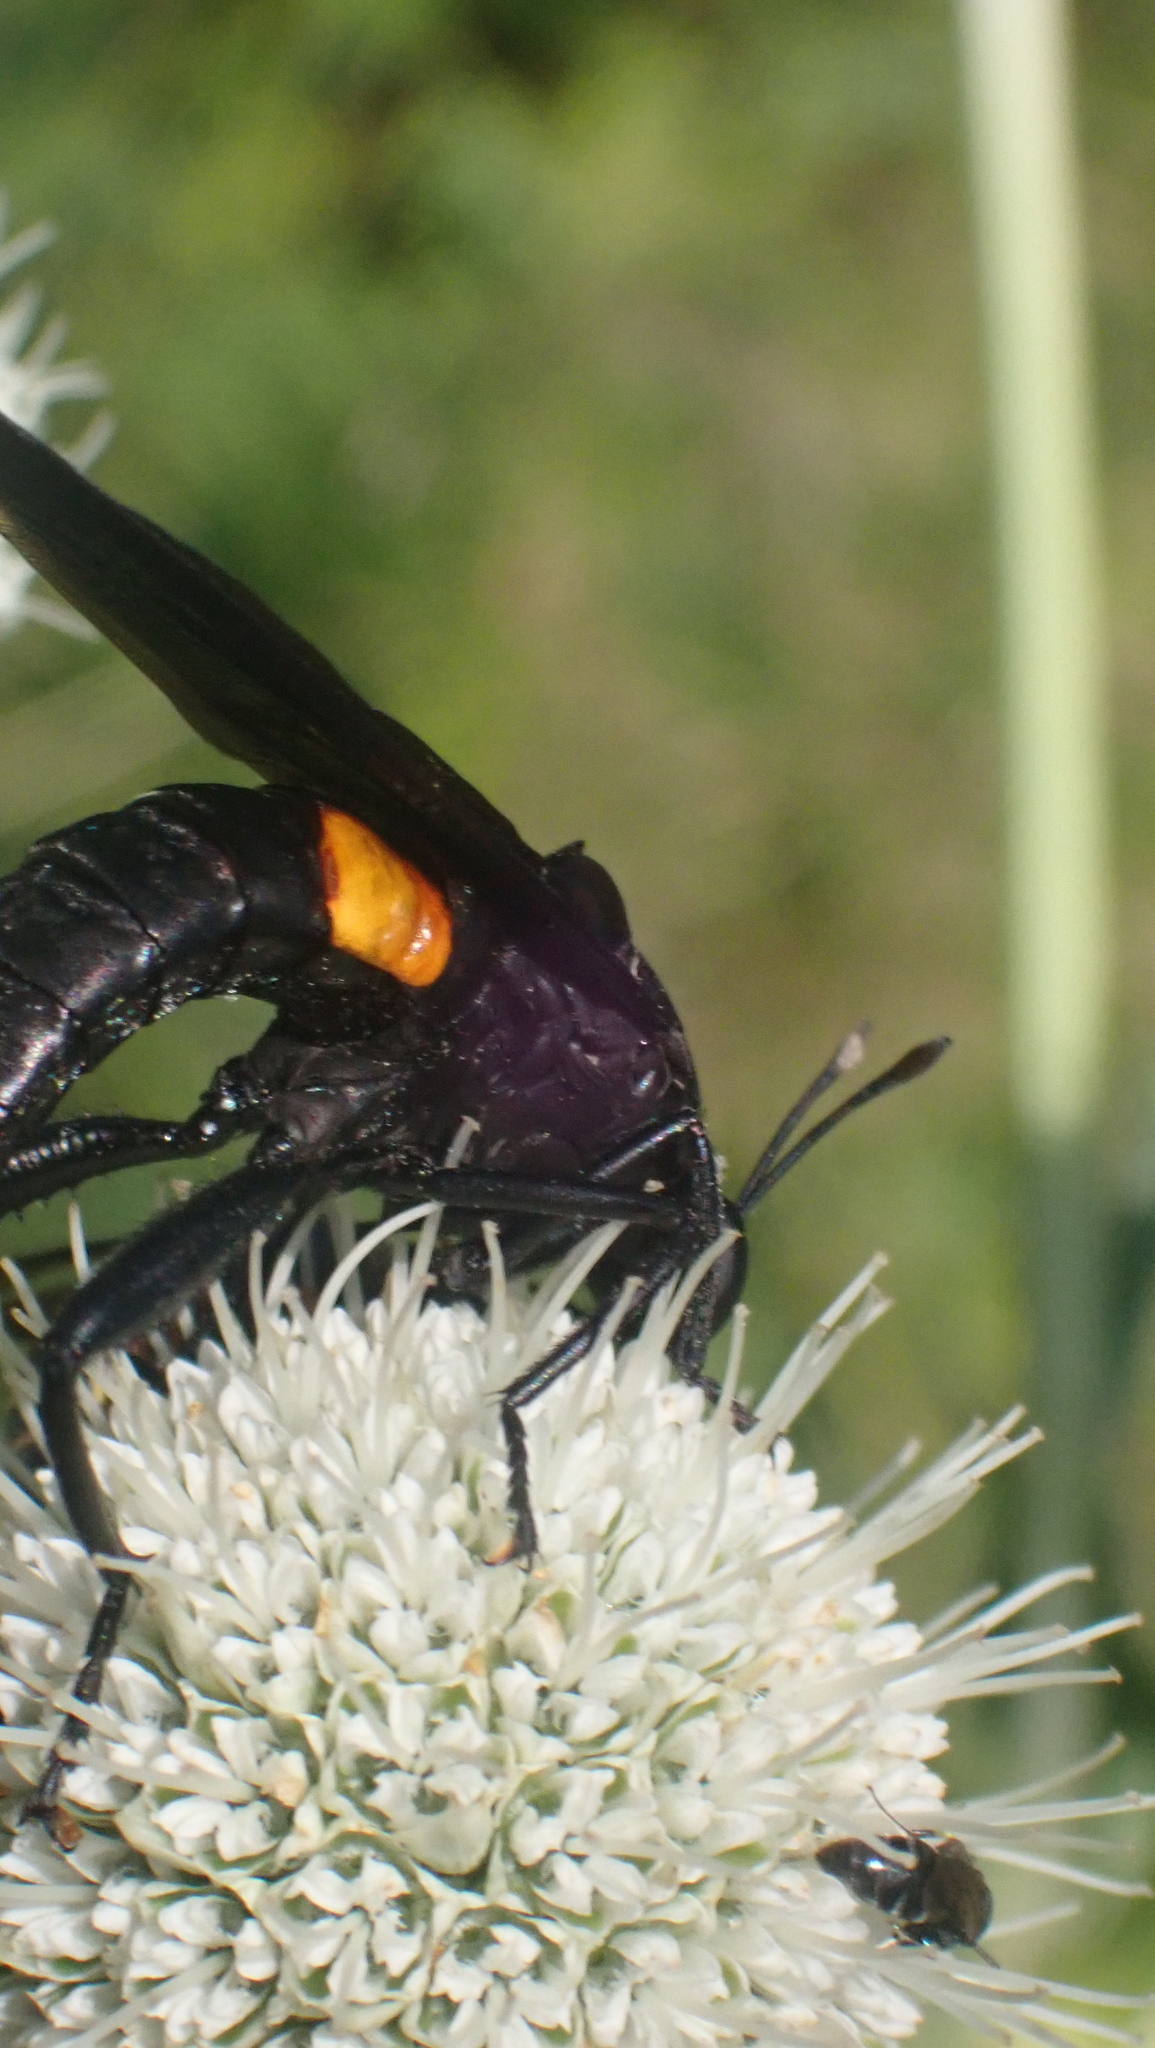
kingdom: Animalia
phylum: Arthropoda
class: Insecta
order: Diptera
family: Mydidae
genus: Mydas
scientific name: Mydas clavatus
